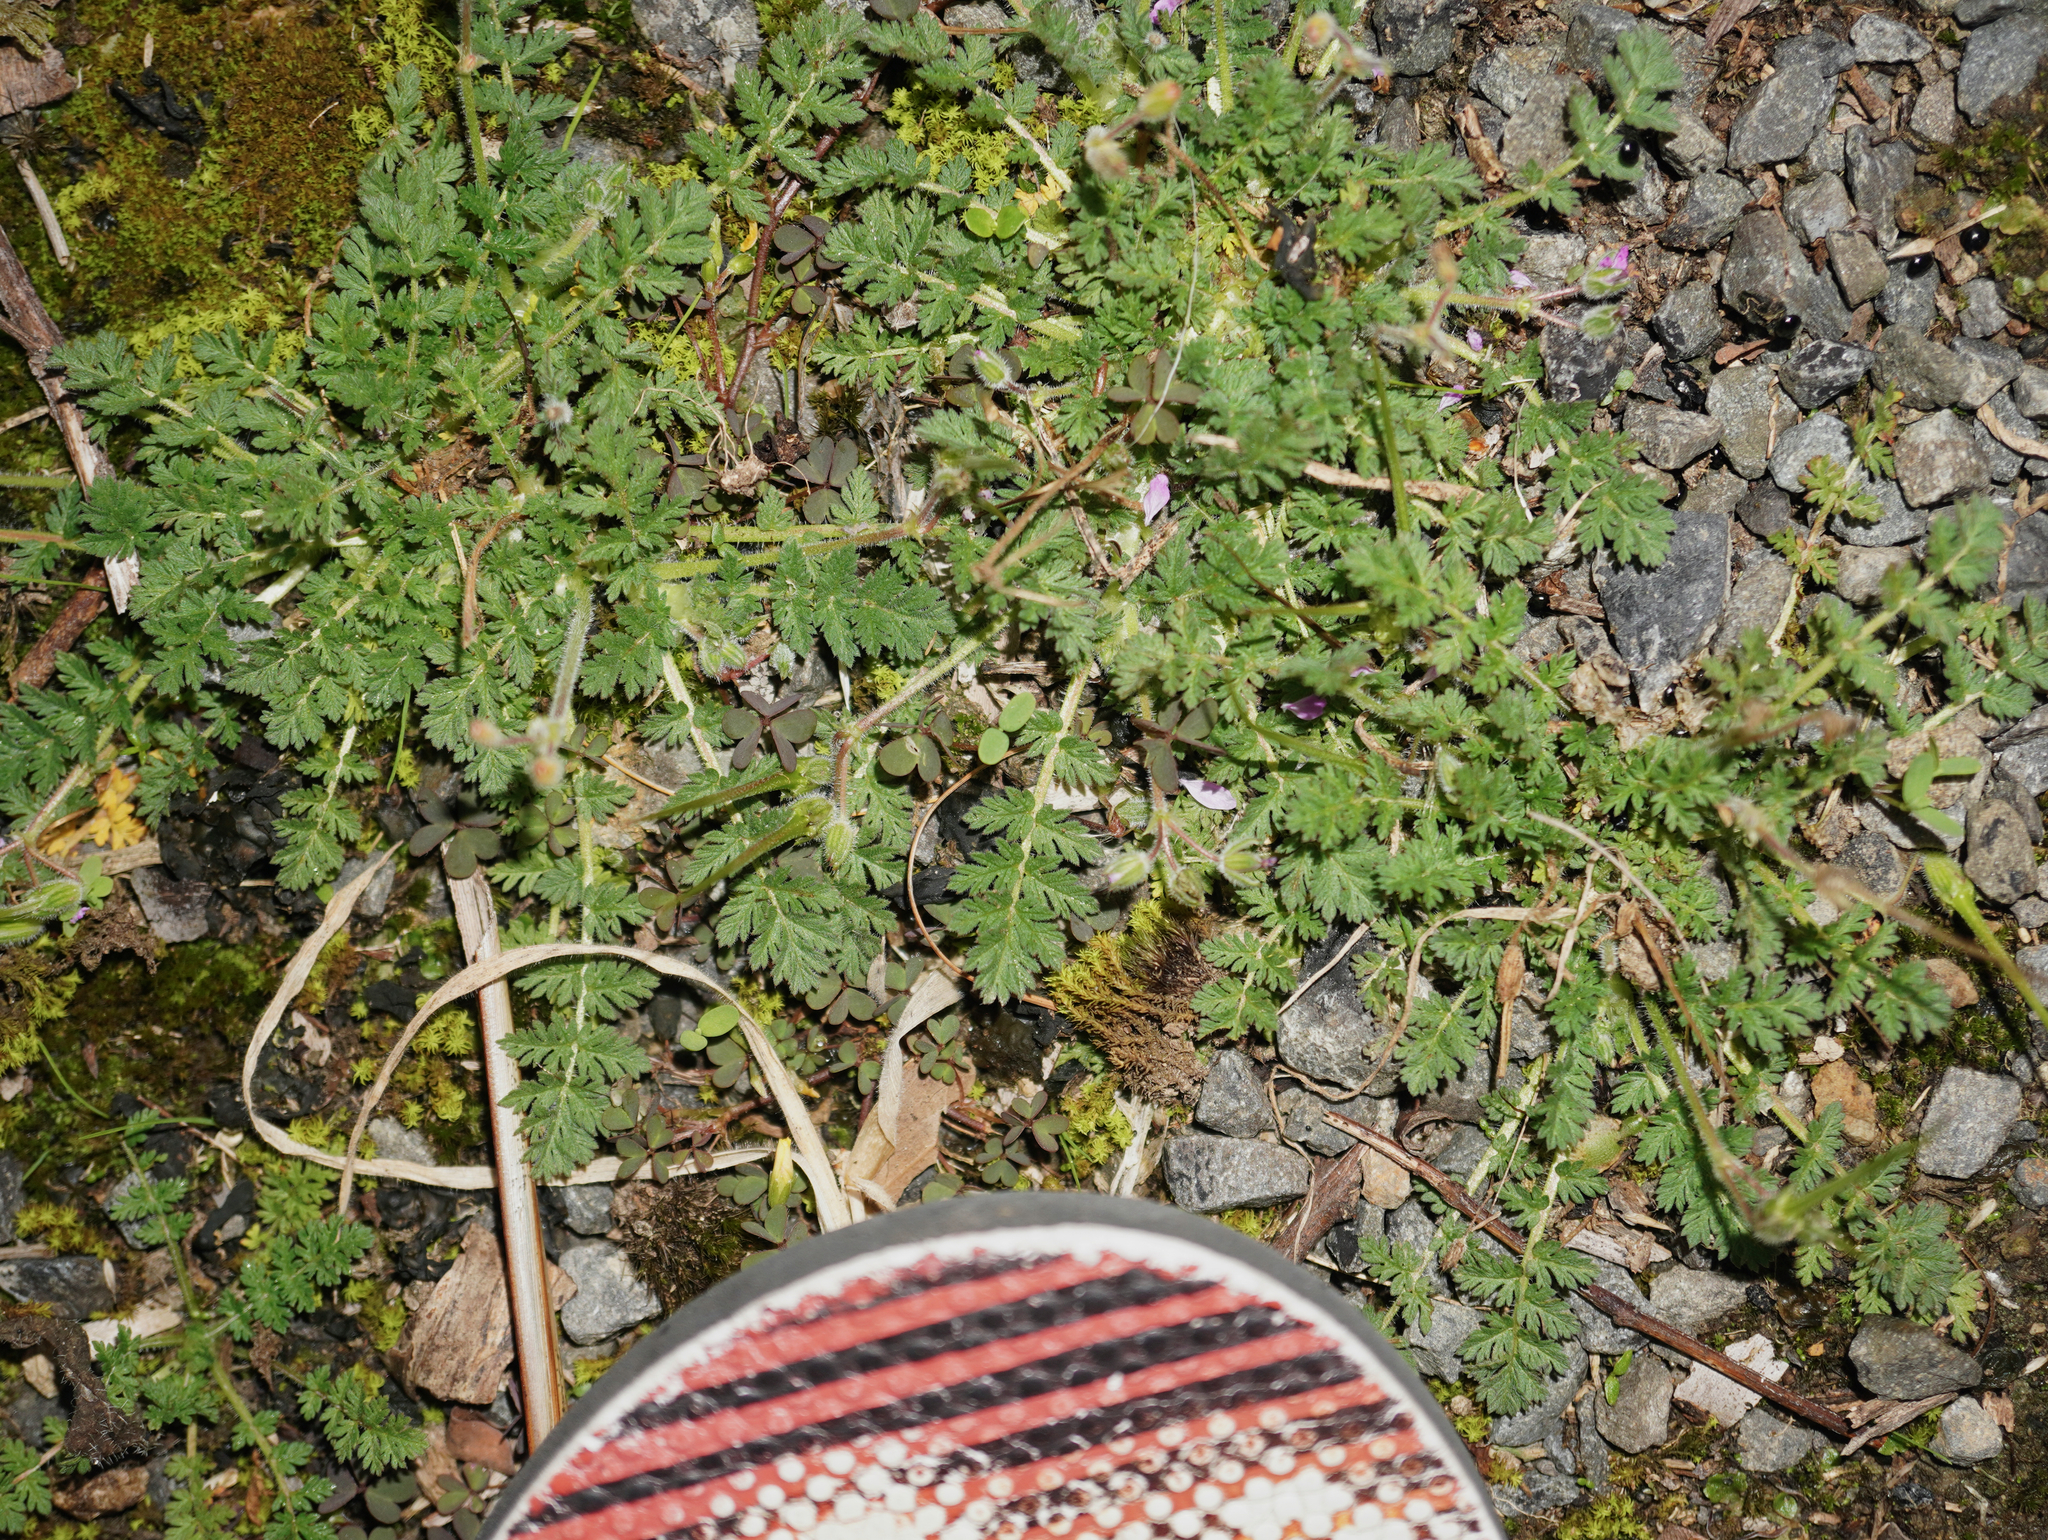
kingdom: Plantae
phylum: Tracheophyta
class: Magnoliopsida
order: Geraniales
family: Geraniaceae
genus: Erodium
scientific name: Erodium cicutarium
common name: Common stork's-bill
